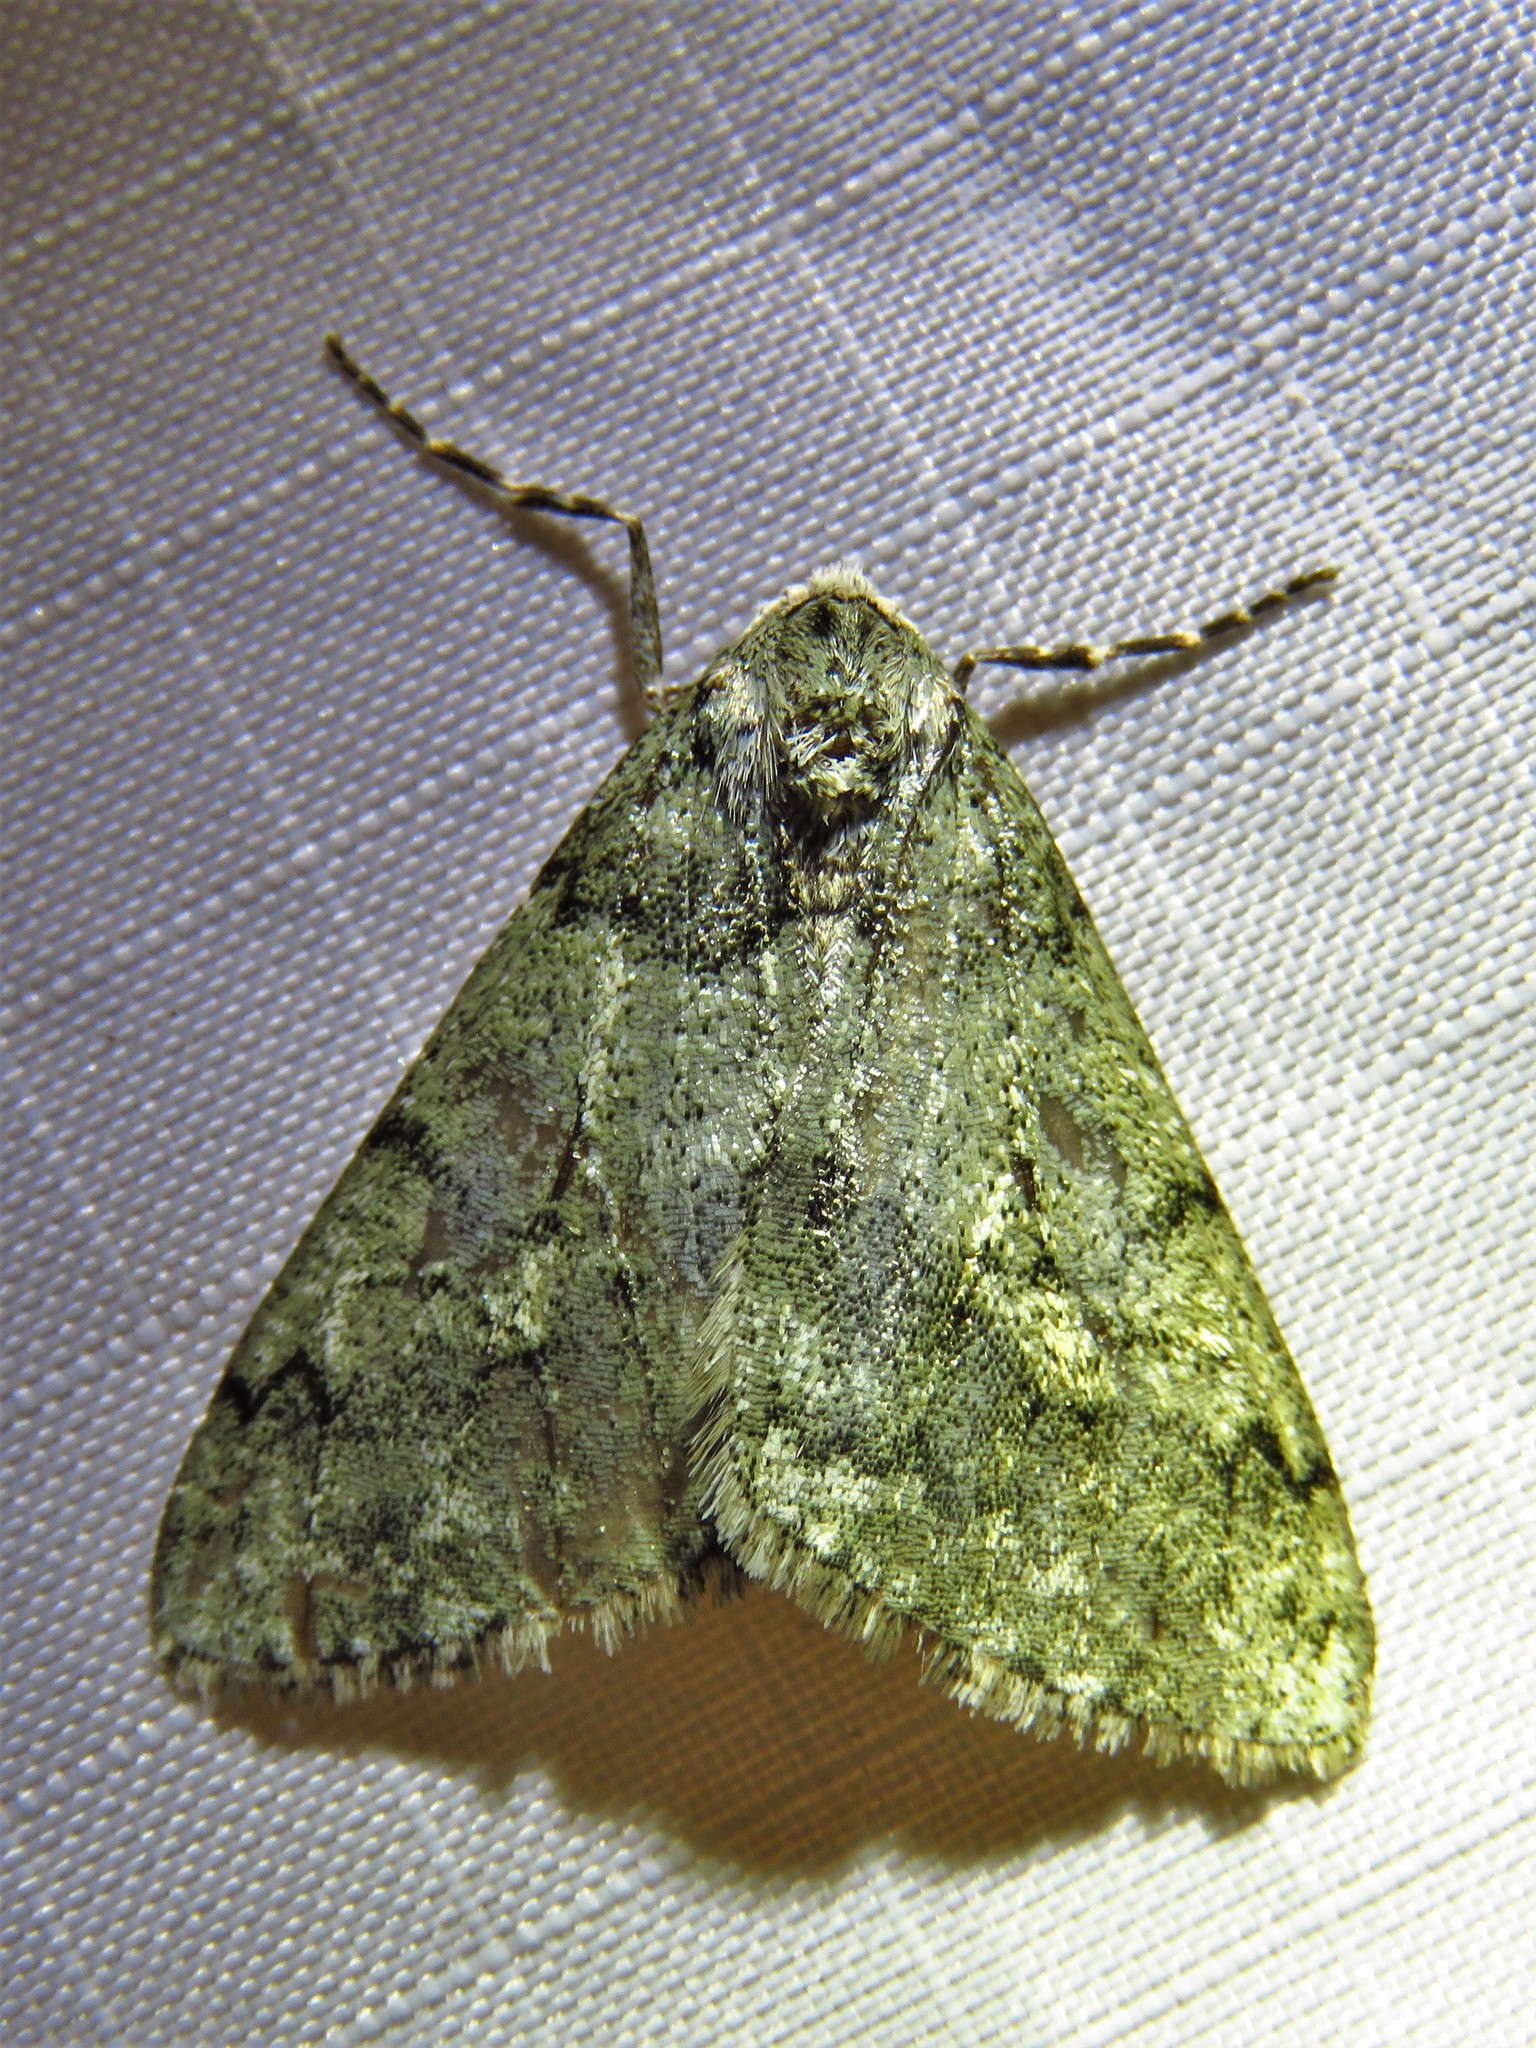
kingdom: Animalia
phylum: Arthropoda
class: Insecta
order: Lepidoptera
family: Geometridae
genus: Phigalia
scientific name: Phigalia strigataria
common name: Small phigalia
